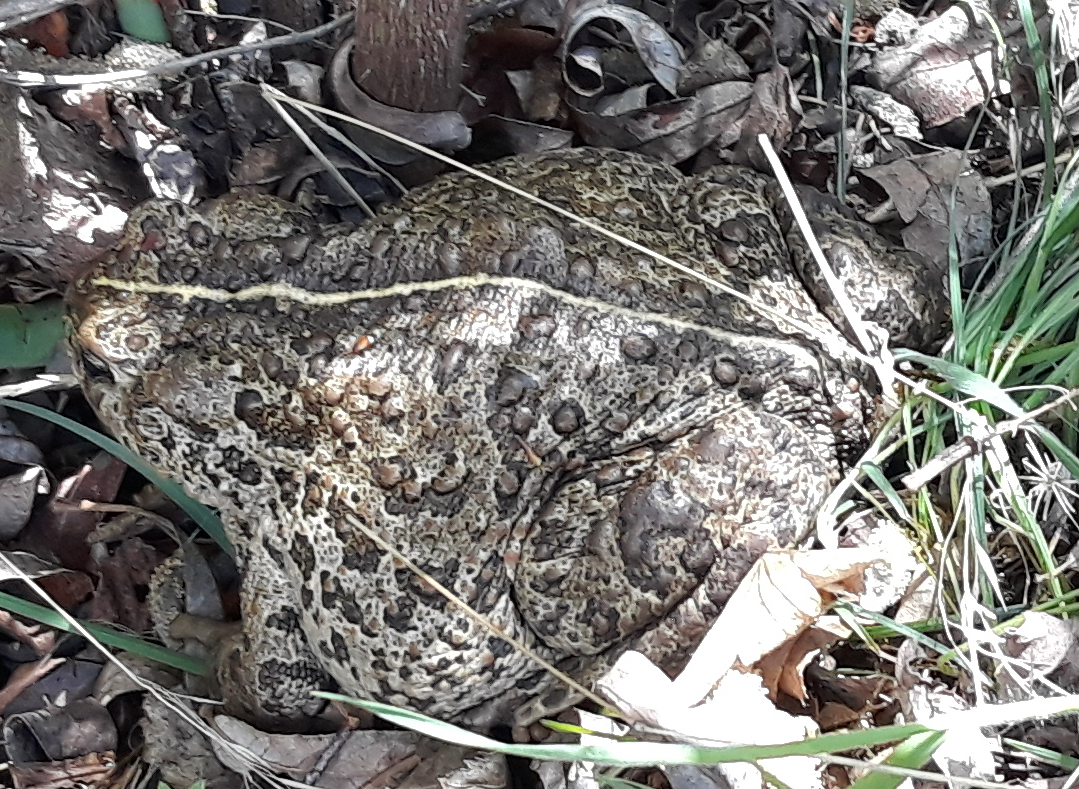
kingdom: Animalia
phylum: Chordata
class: Amphibia
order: Anura
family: Bufonidae
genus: Anaxyrus
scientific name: Anaxyrus boreas
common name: Western toad
